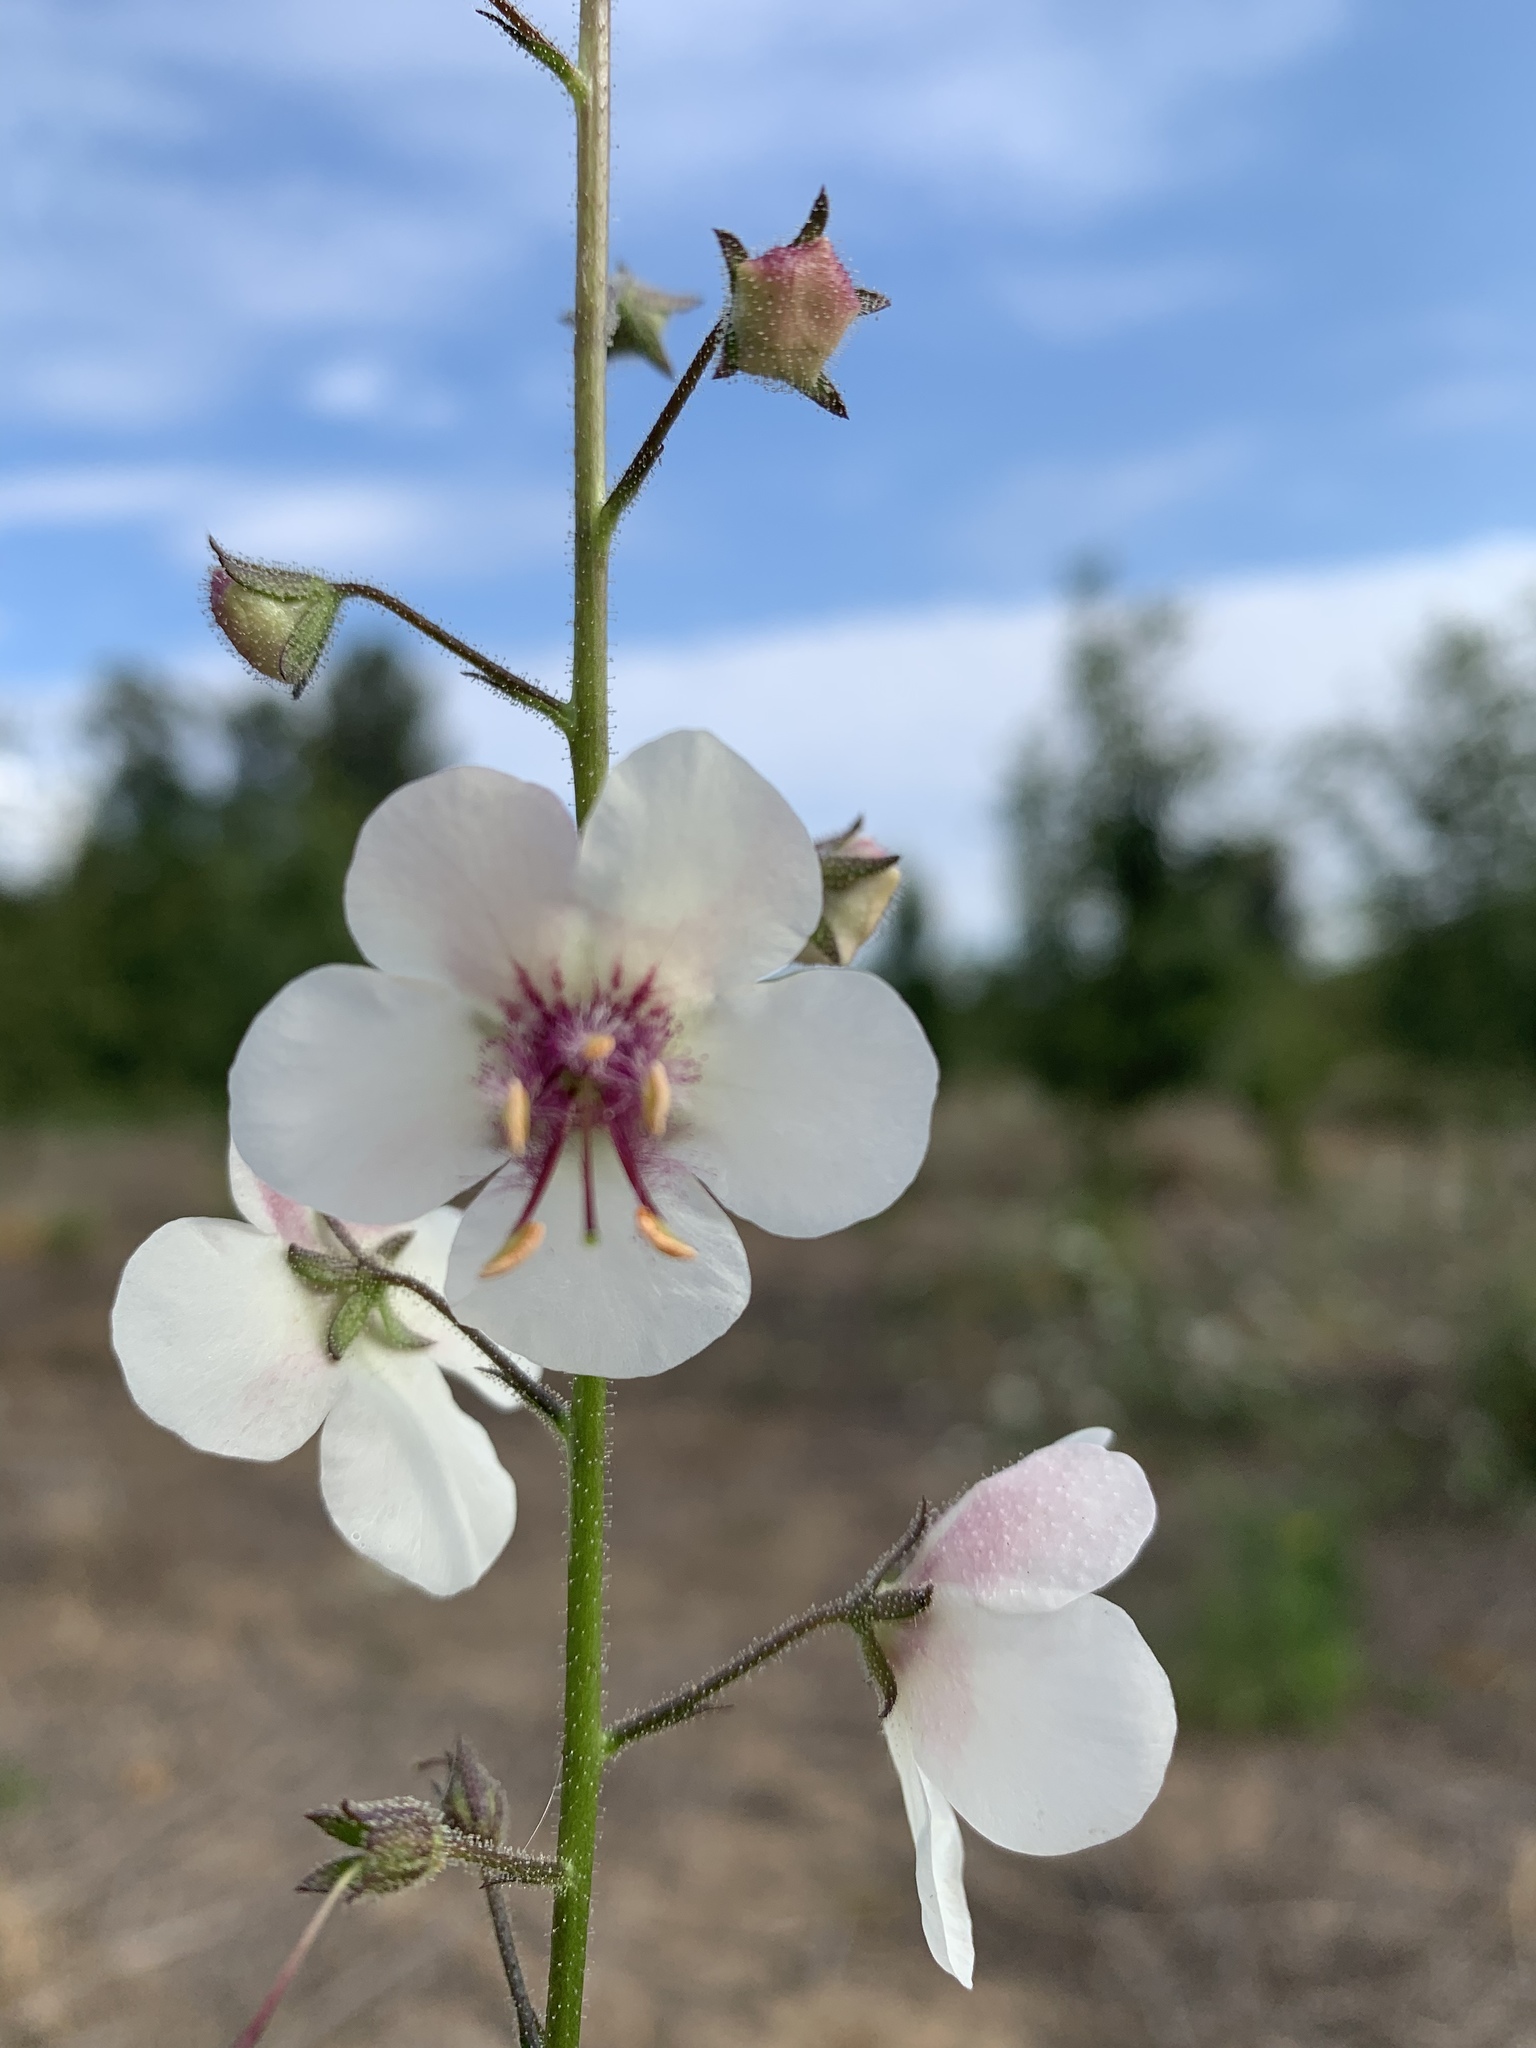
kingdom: Plantae
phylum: Tracheophyta
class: Magnoliopsida
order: Lamiales
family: Scrophulariaceae
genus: Verbascum
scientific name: Verbascum blattaria
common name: Moth mullein
